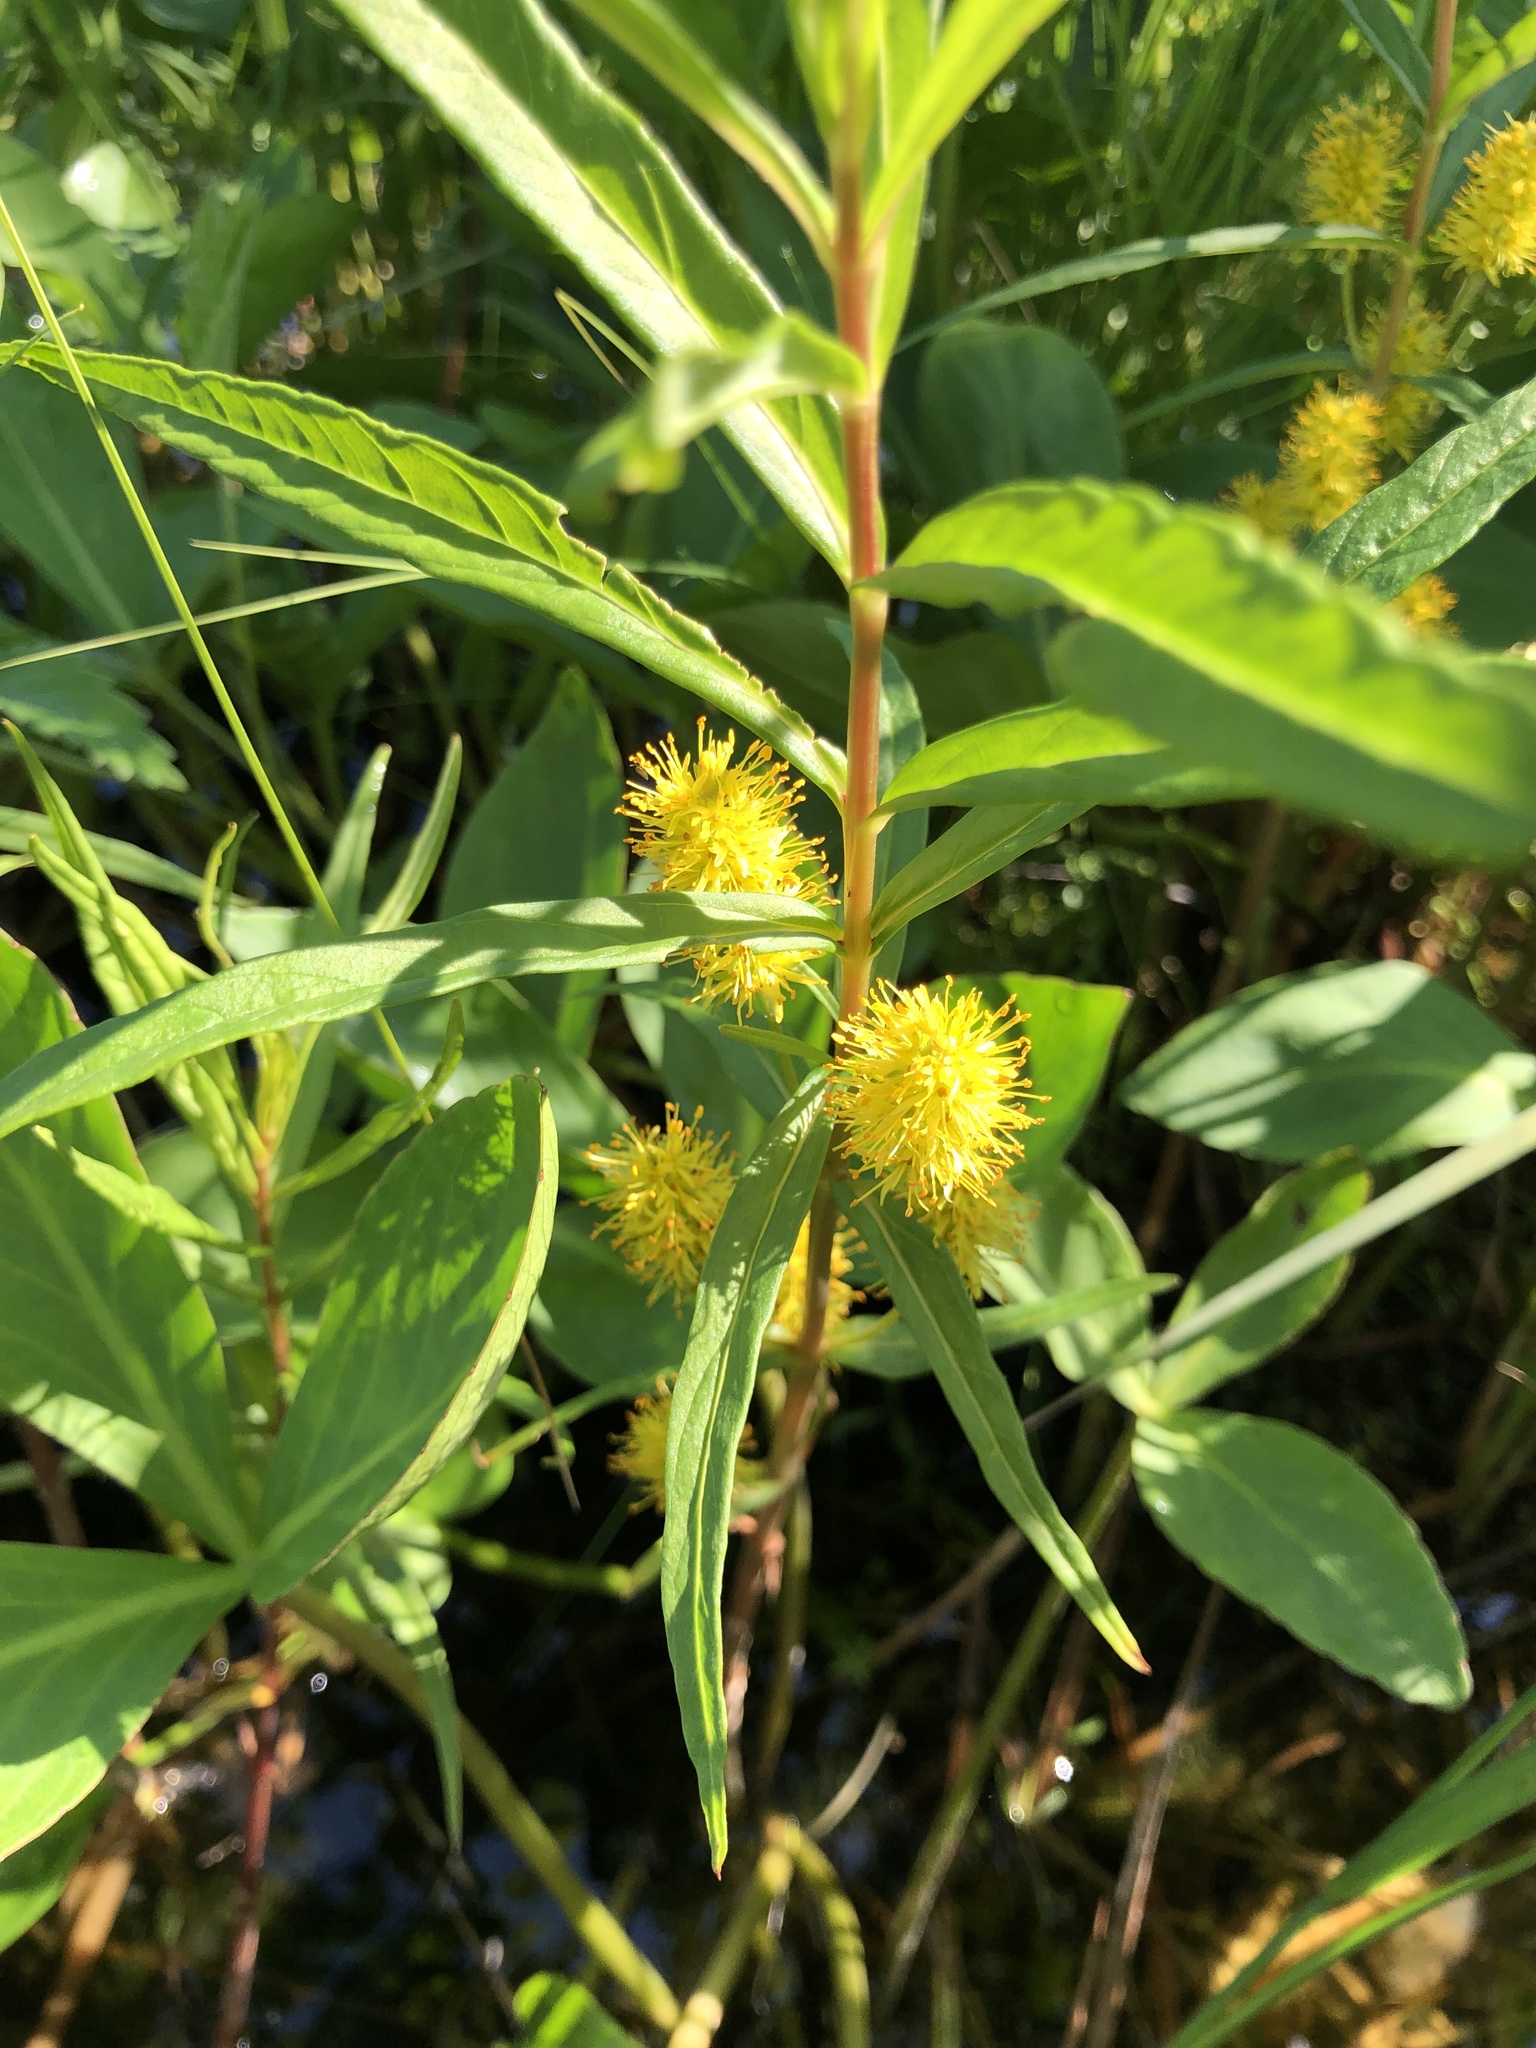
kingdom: Plantae
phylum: Tracheophyta
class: Magnoliopsida
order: Ericales
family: Primulaceae
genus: Lysimachia
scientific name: Lysimachia thyrsiflora
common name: Tufted loosestrife
